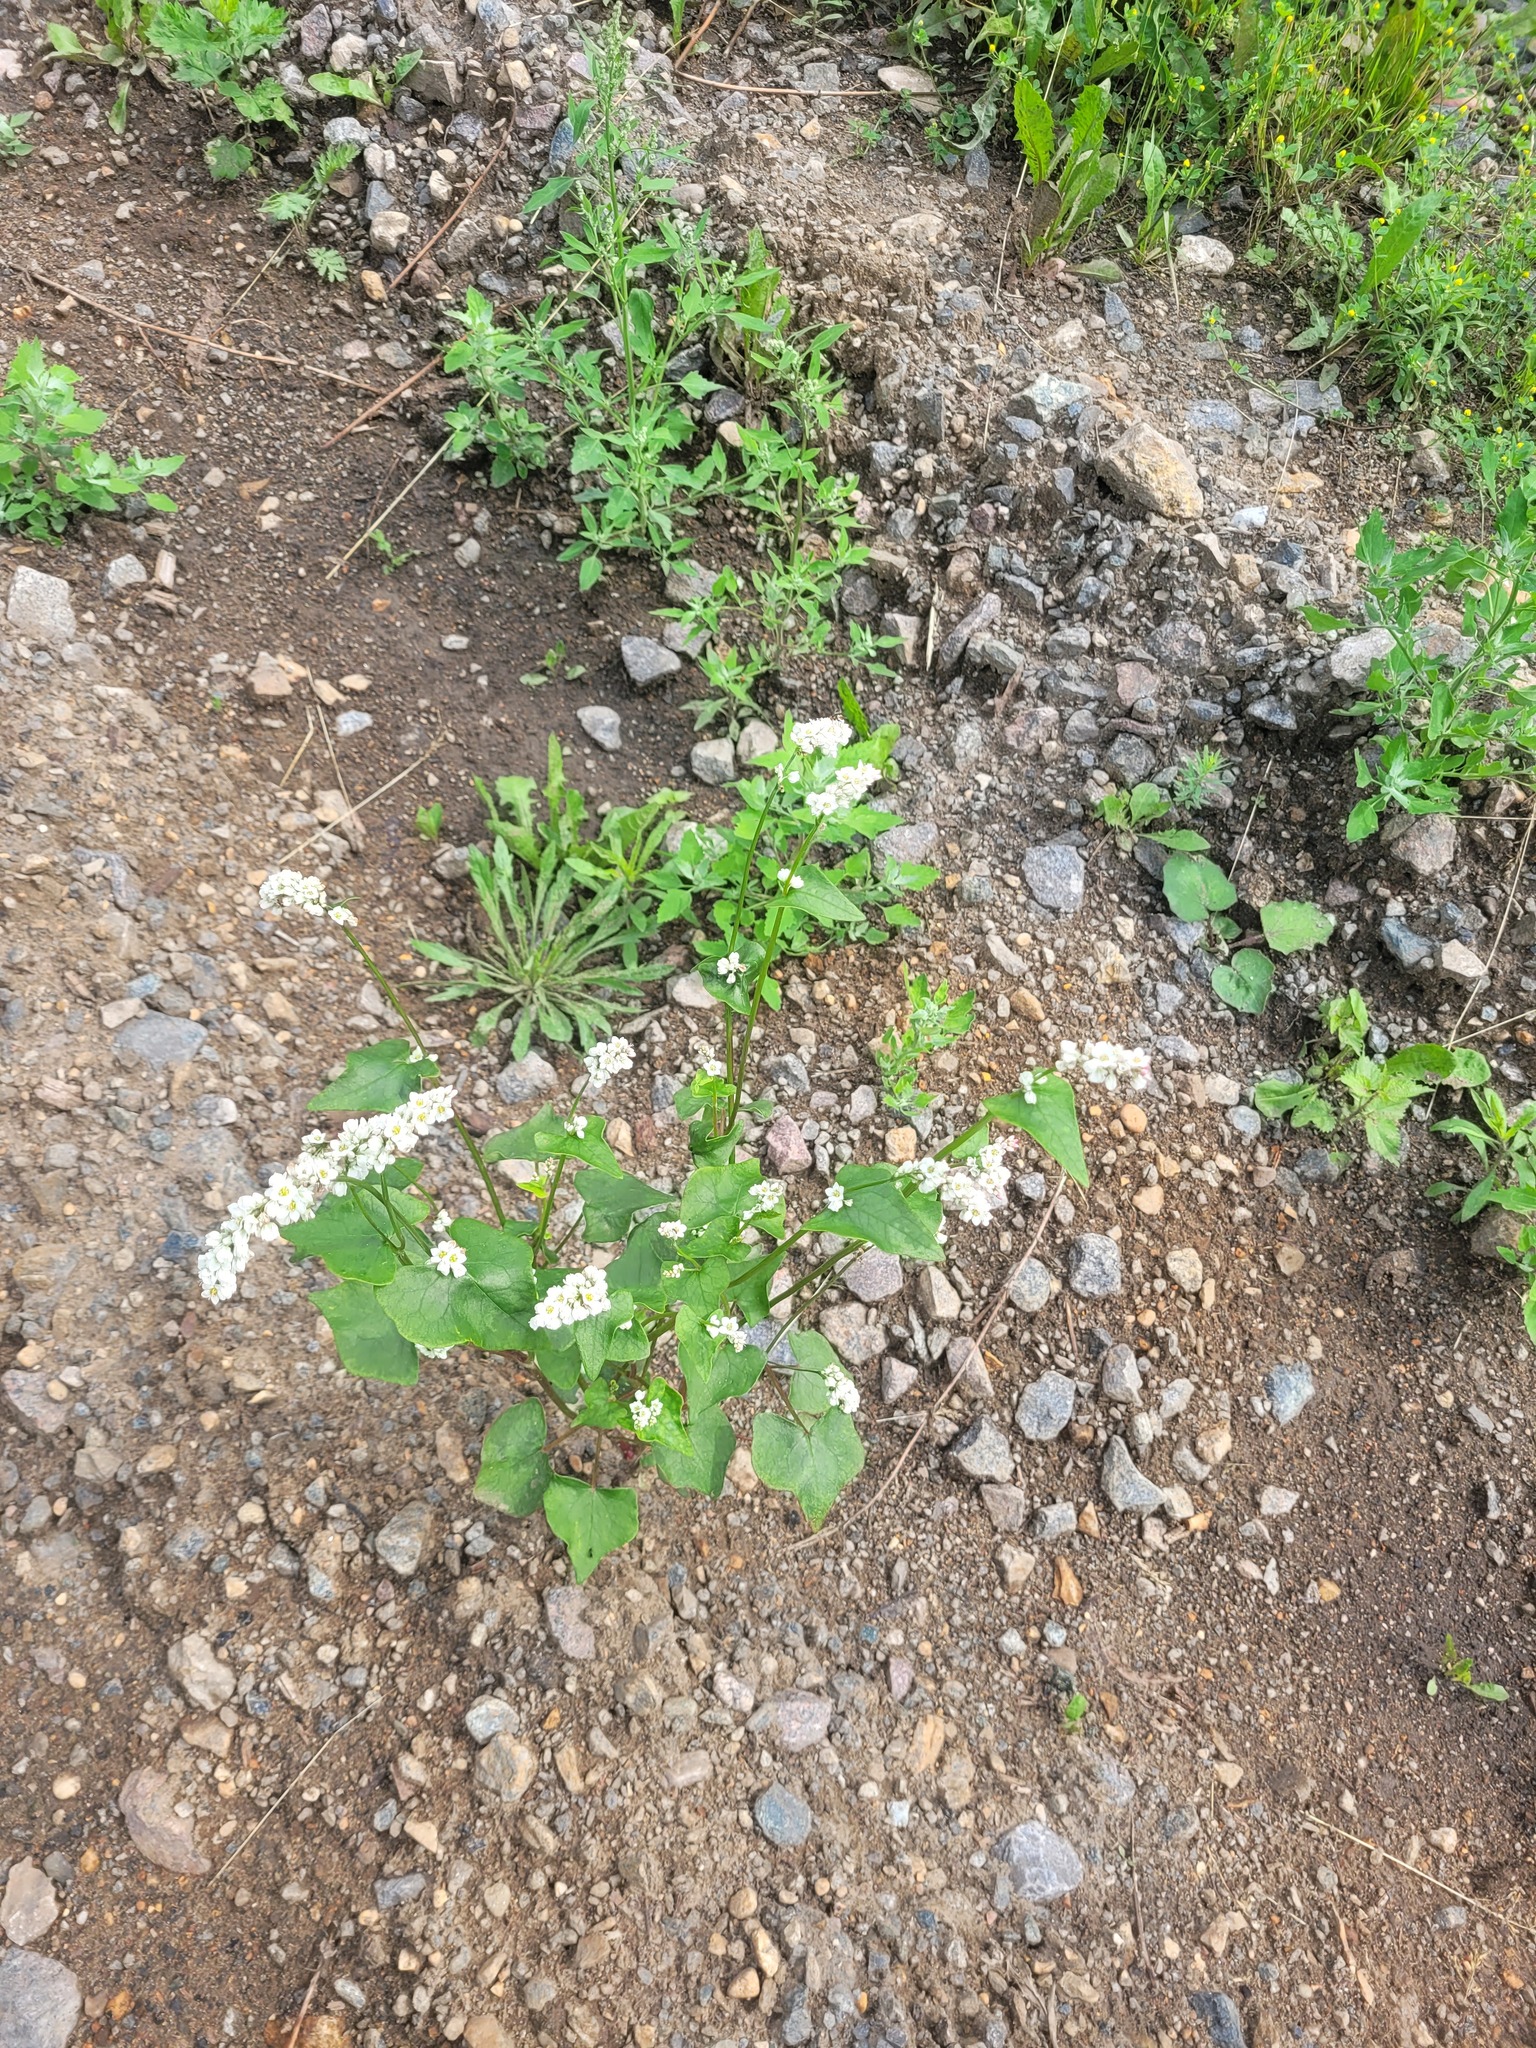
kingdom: Plantae
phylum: Tracheophyta
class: Magnoliopsida
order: Caryophyllales
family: Polygonaceae
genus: Fagopyrum
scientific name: Fagopyrum esculentum
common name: Buckwheat
